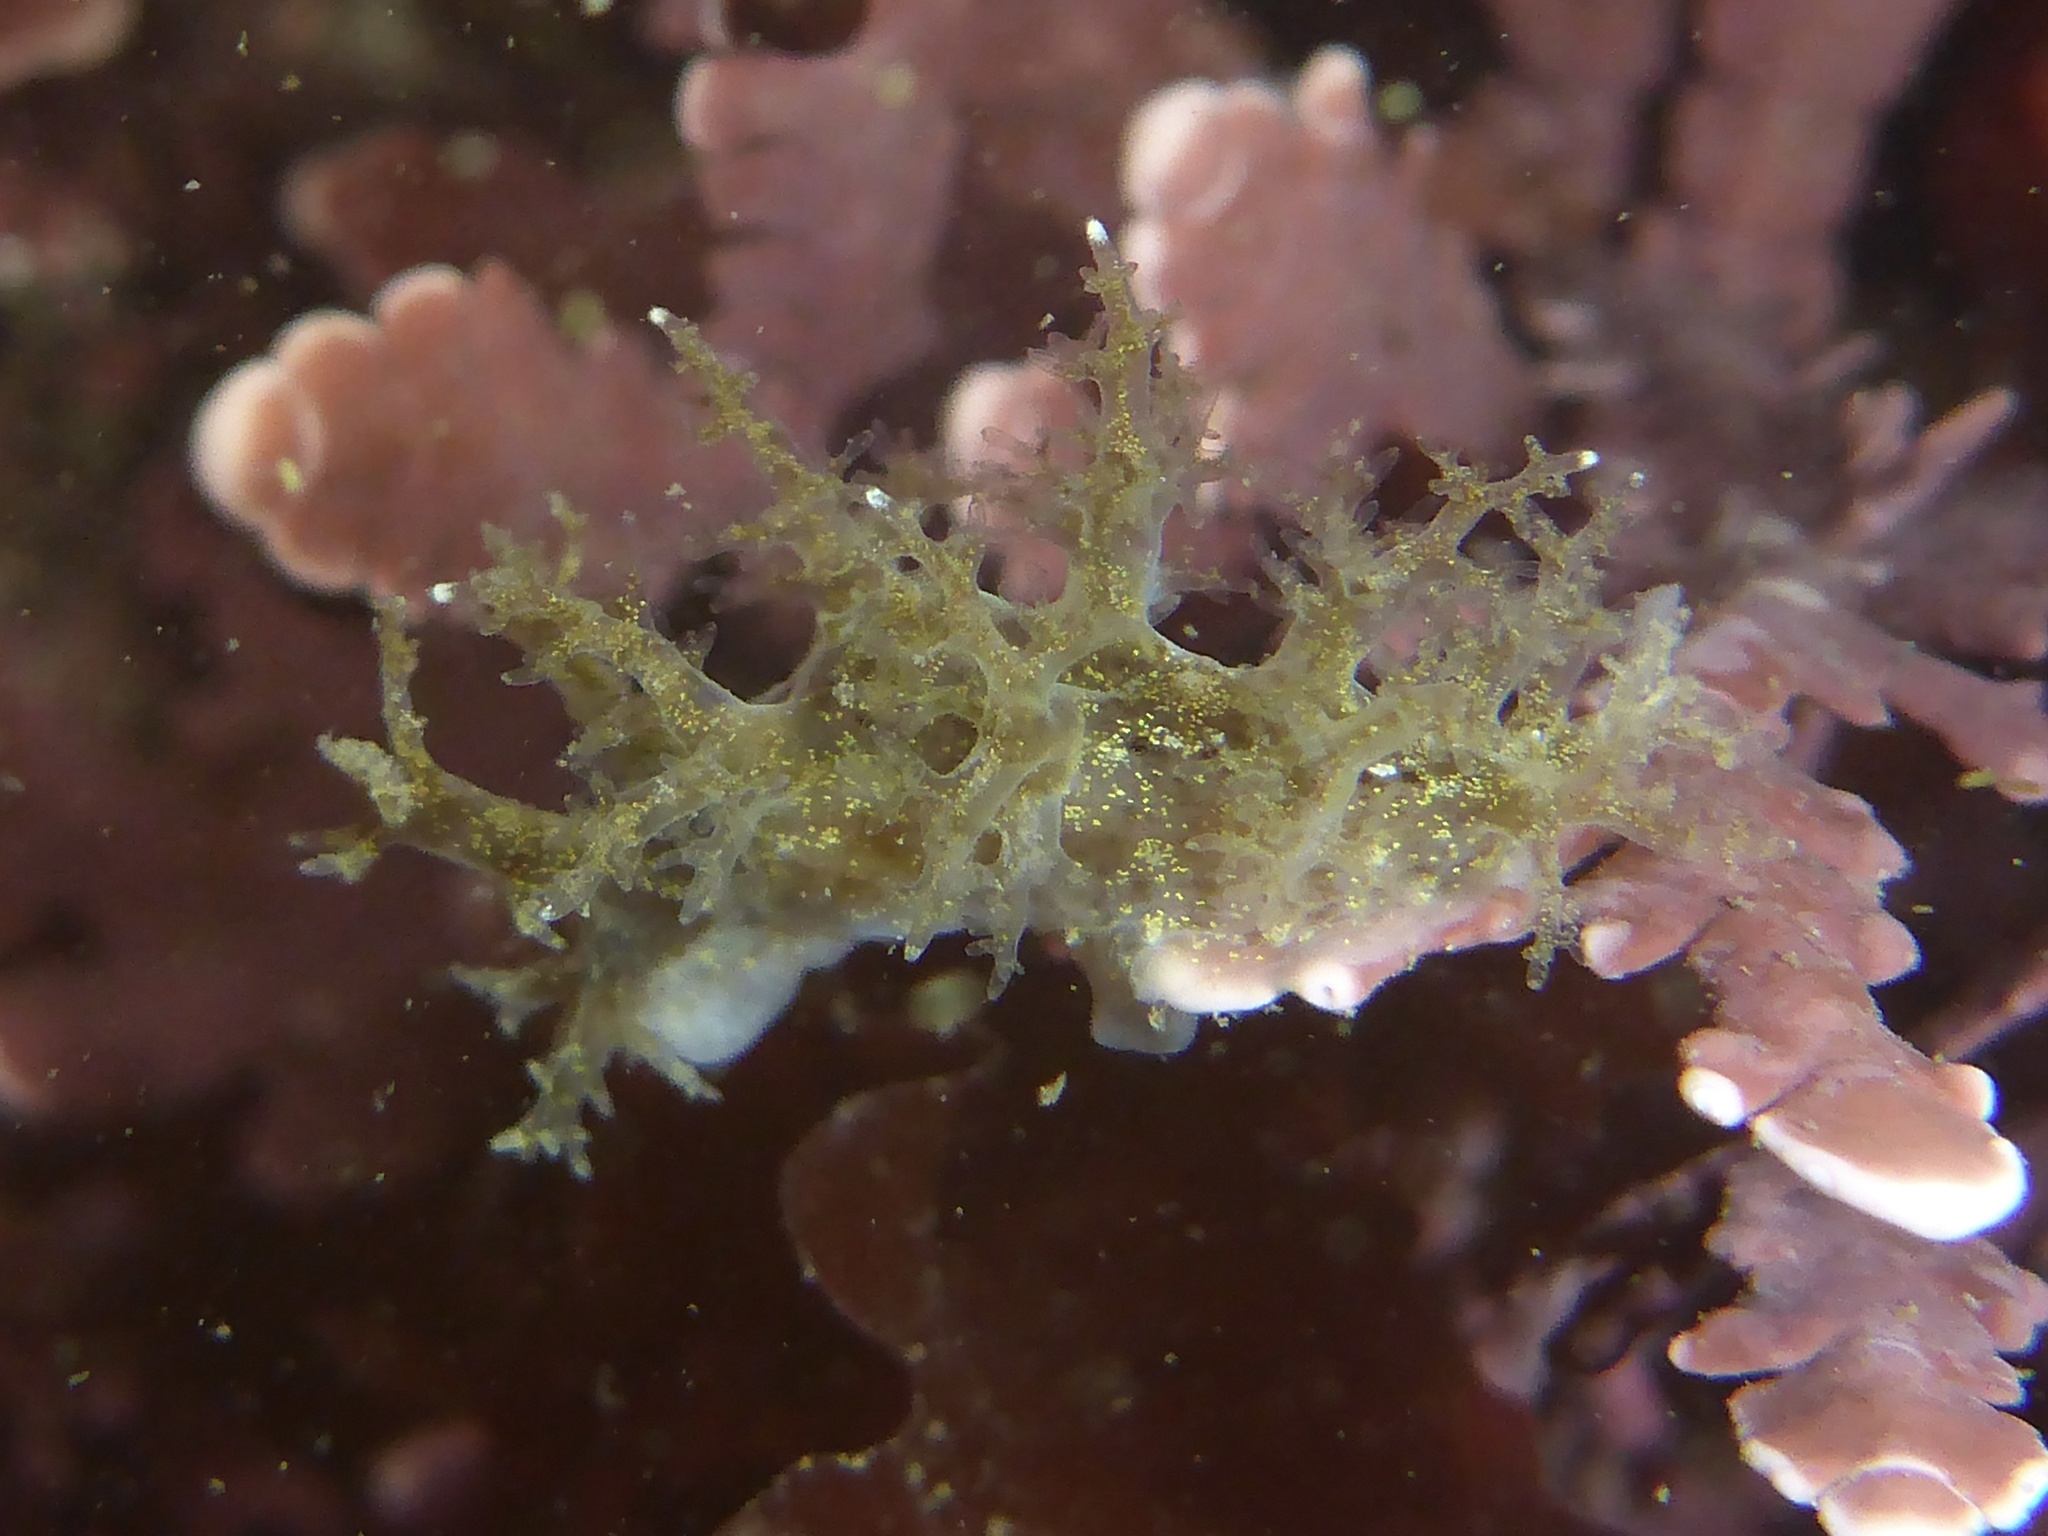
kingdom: Animalia
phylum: Mollusca
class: Gastropoda
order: Nudibranchia
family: Dendronotidae
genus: Dendronotus
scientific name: Dendronotus venustus
